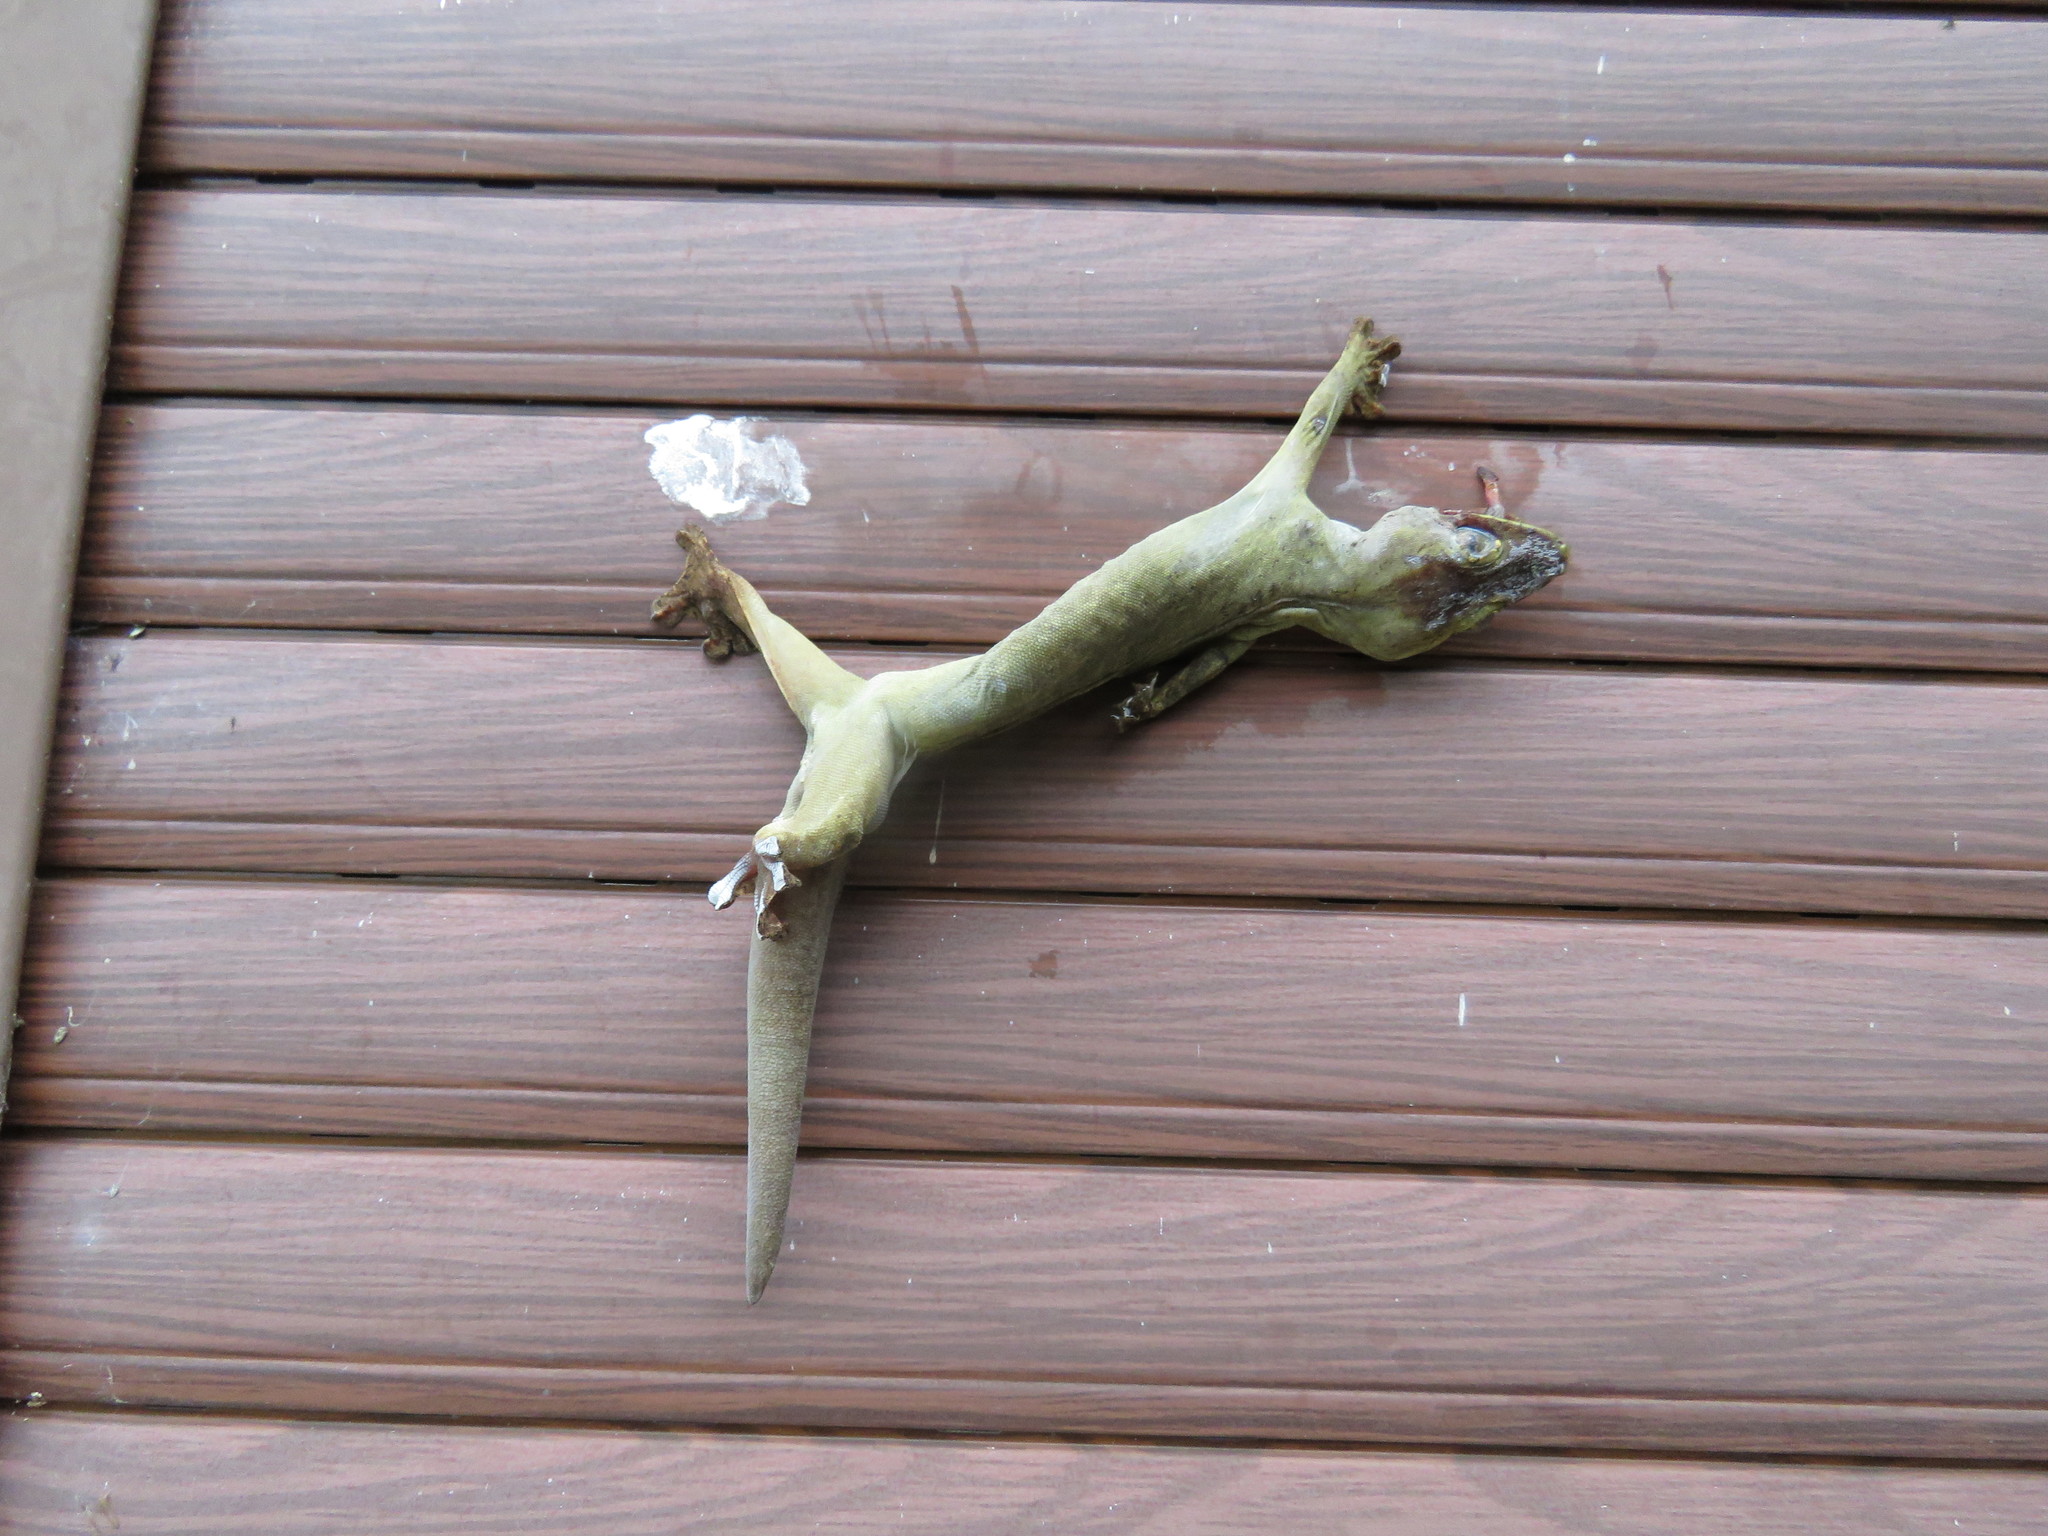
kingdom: Animalia
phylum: Chordata
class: Squamata
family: Phyllodactylidae
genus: Thecadactylus
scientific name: Thecadactylus solimoensis
